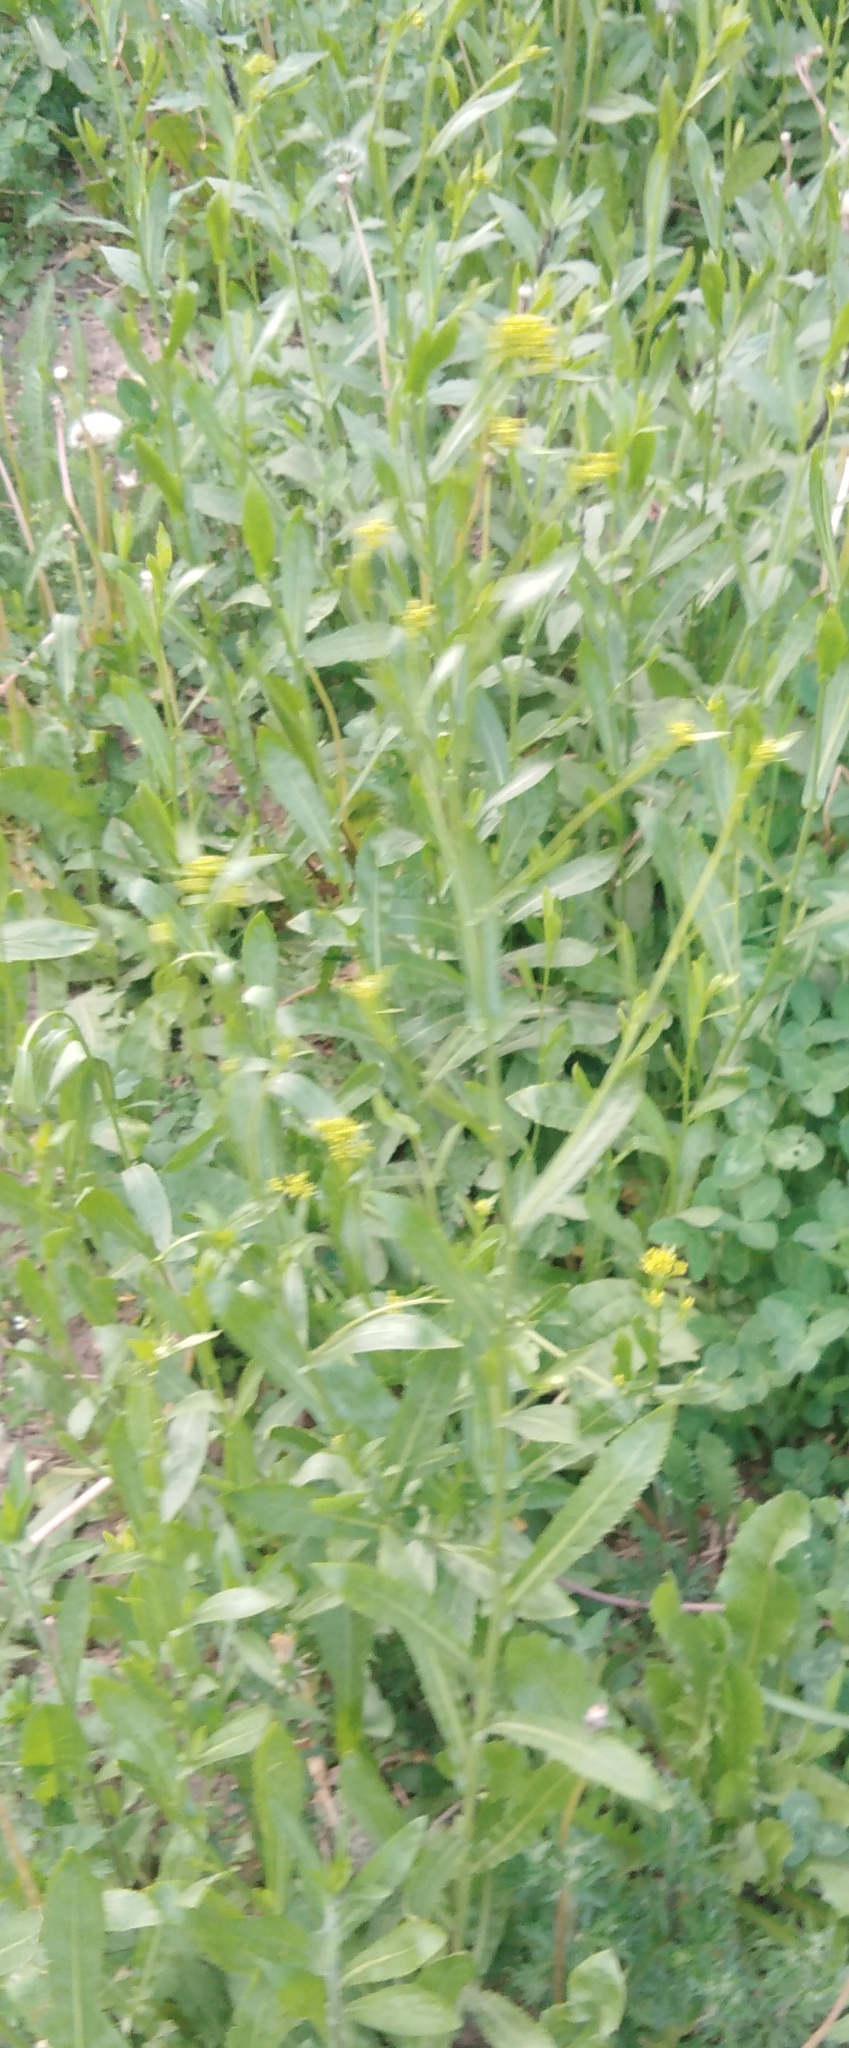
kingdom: Plantae
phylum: Tracheophyta
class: Magnoliopsida
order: Brassicales
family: Brassicaceae
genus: Bunias
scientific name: Bunias orientalis
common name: Warty-cabbage
